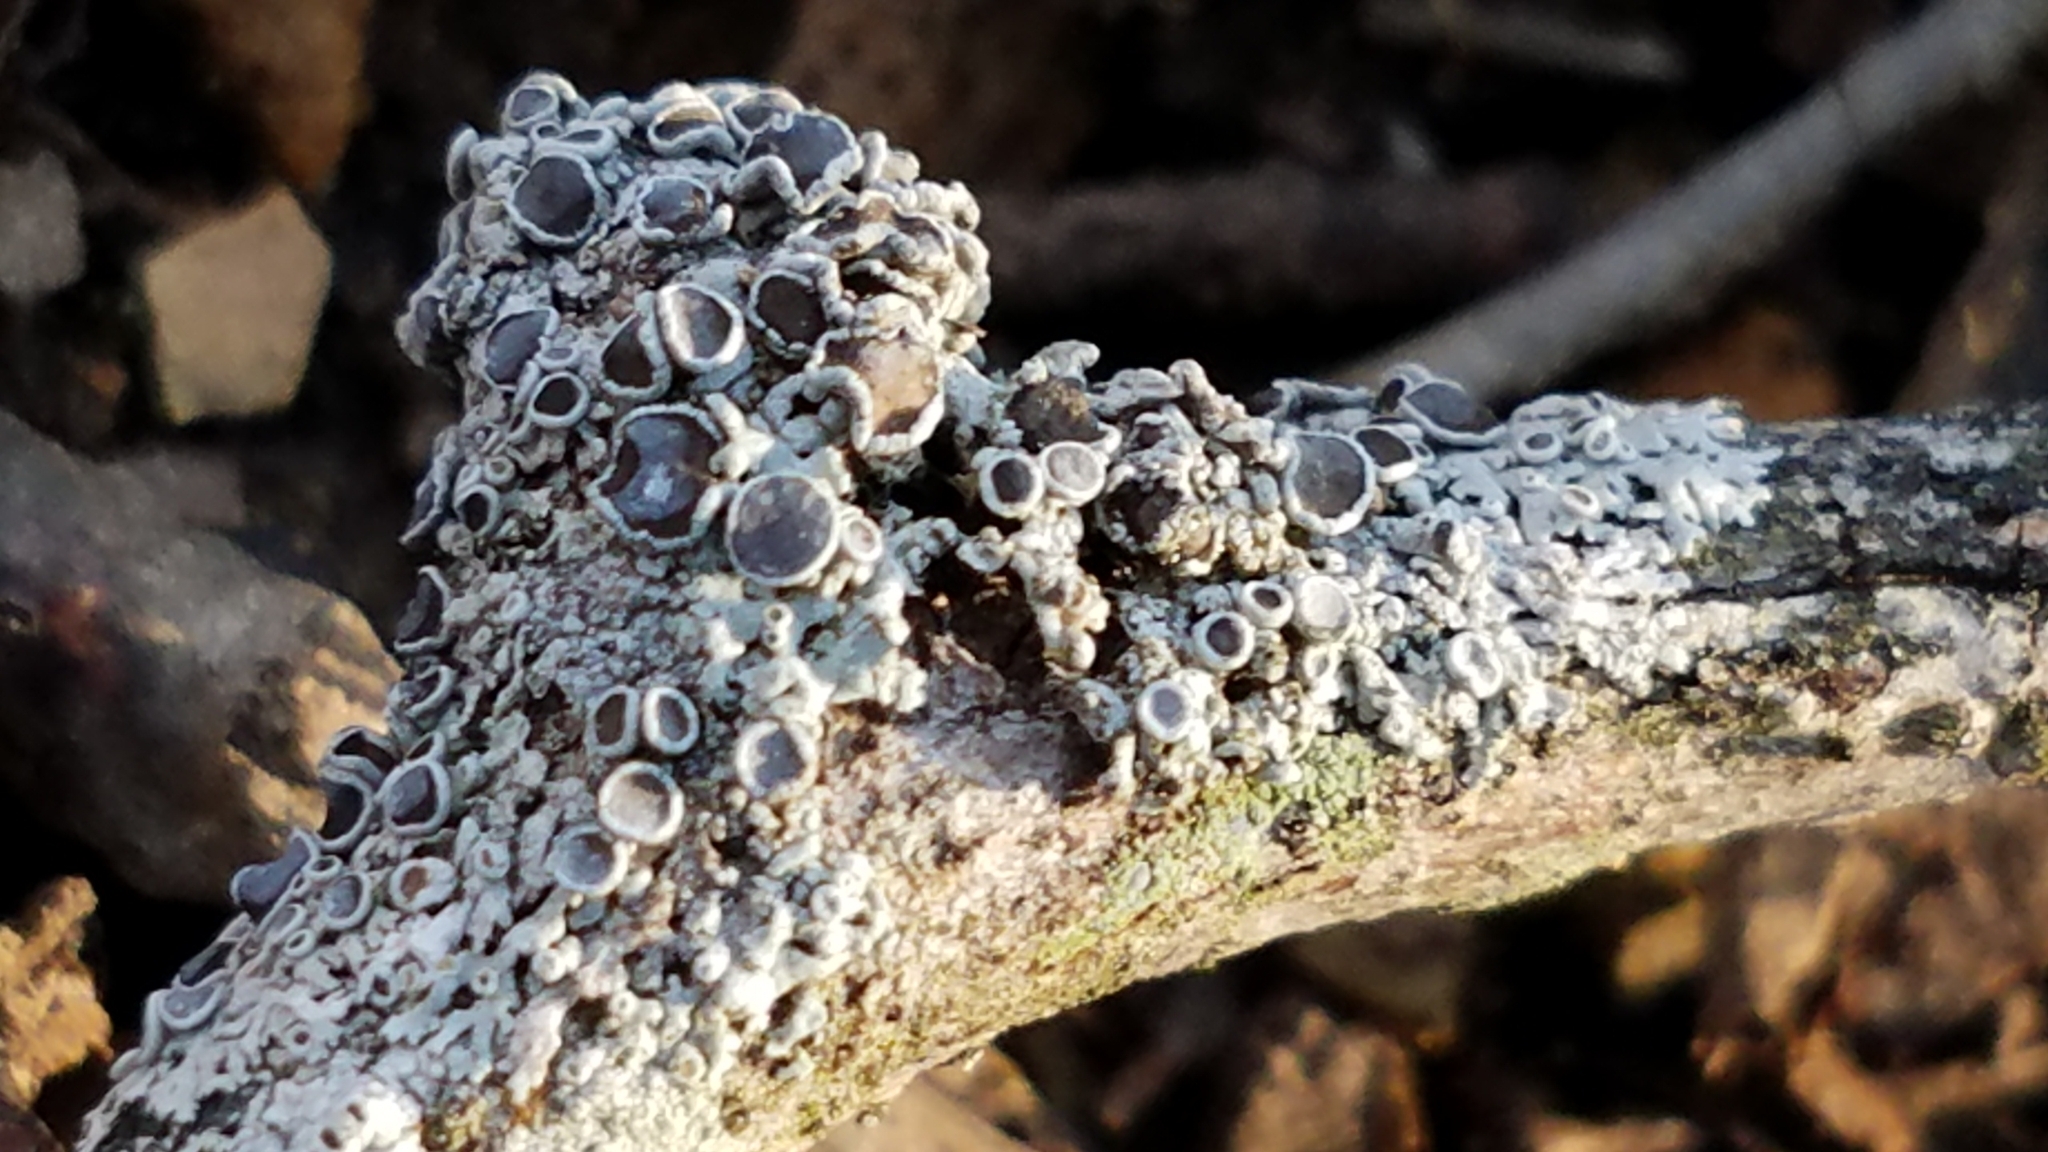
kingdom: Fungi
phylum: Ascomycota
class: Lecanoromycetes
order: Caliciales
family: Physciaceae
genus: Physcia
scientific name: Physcia millegrana
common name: Rosette lichen
